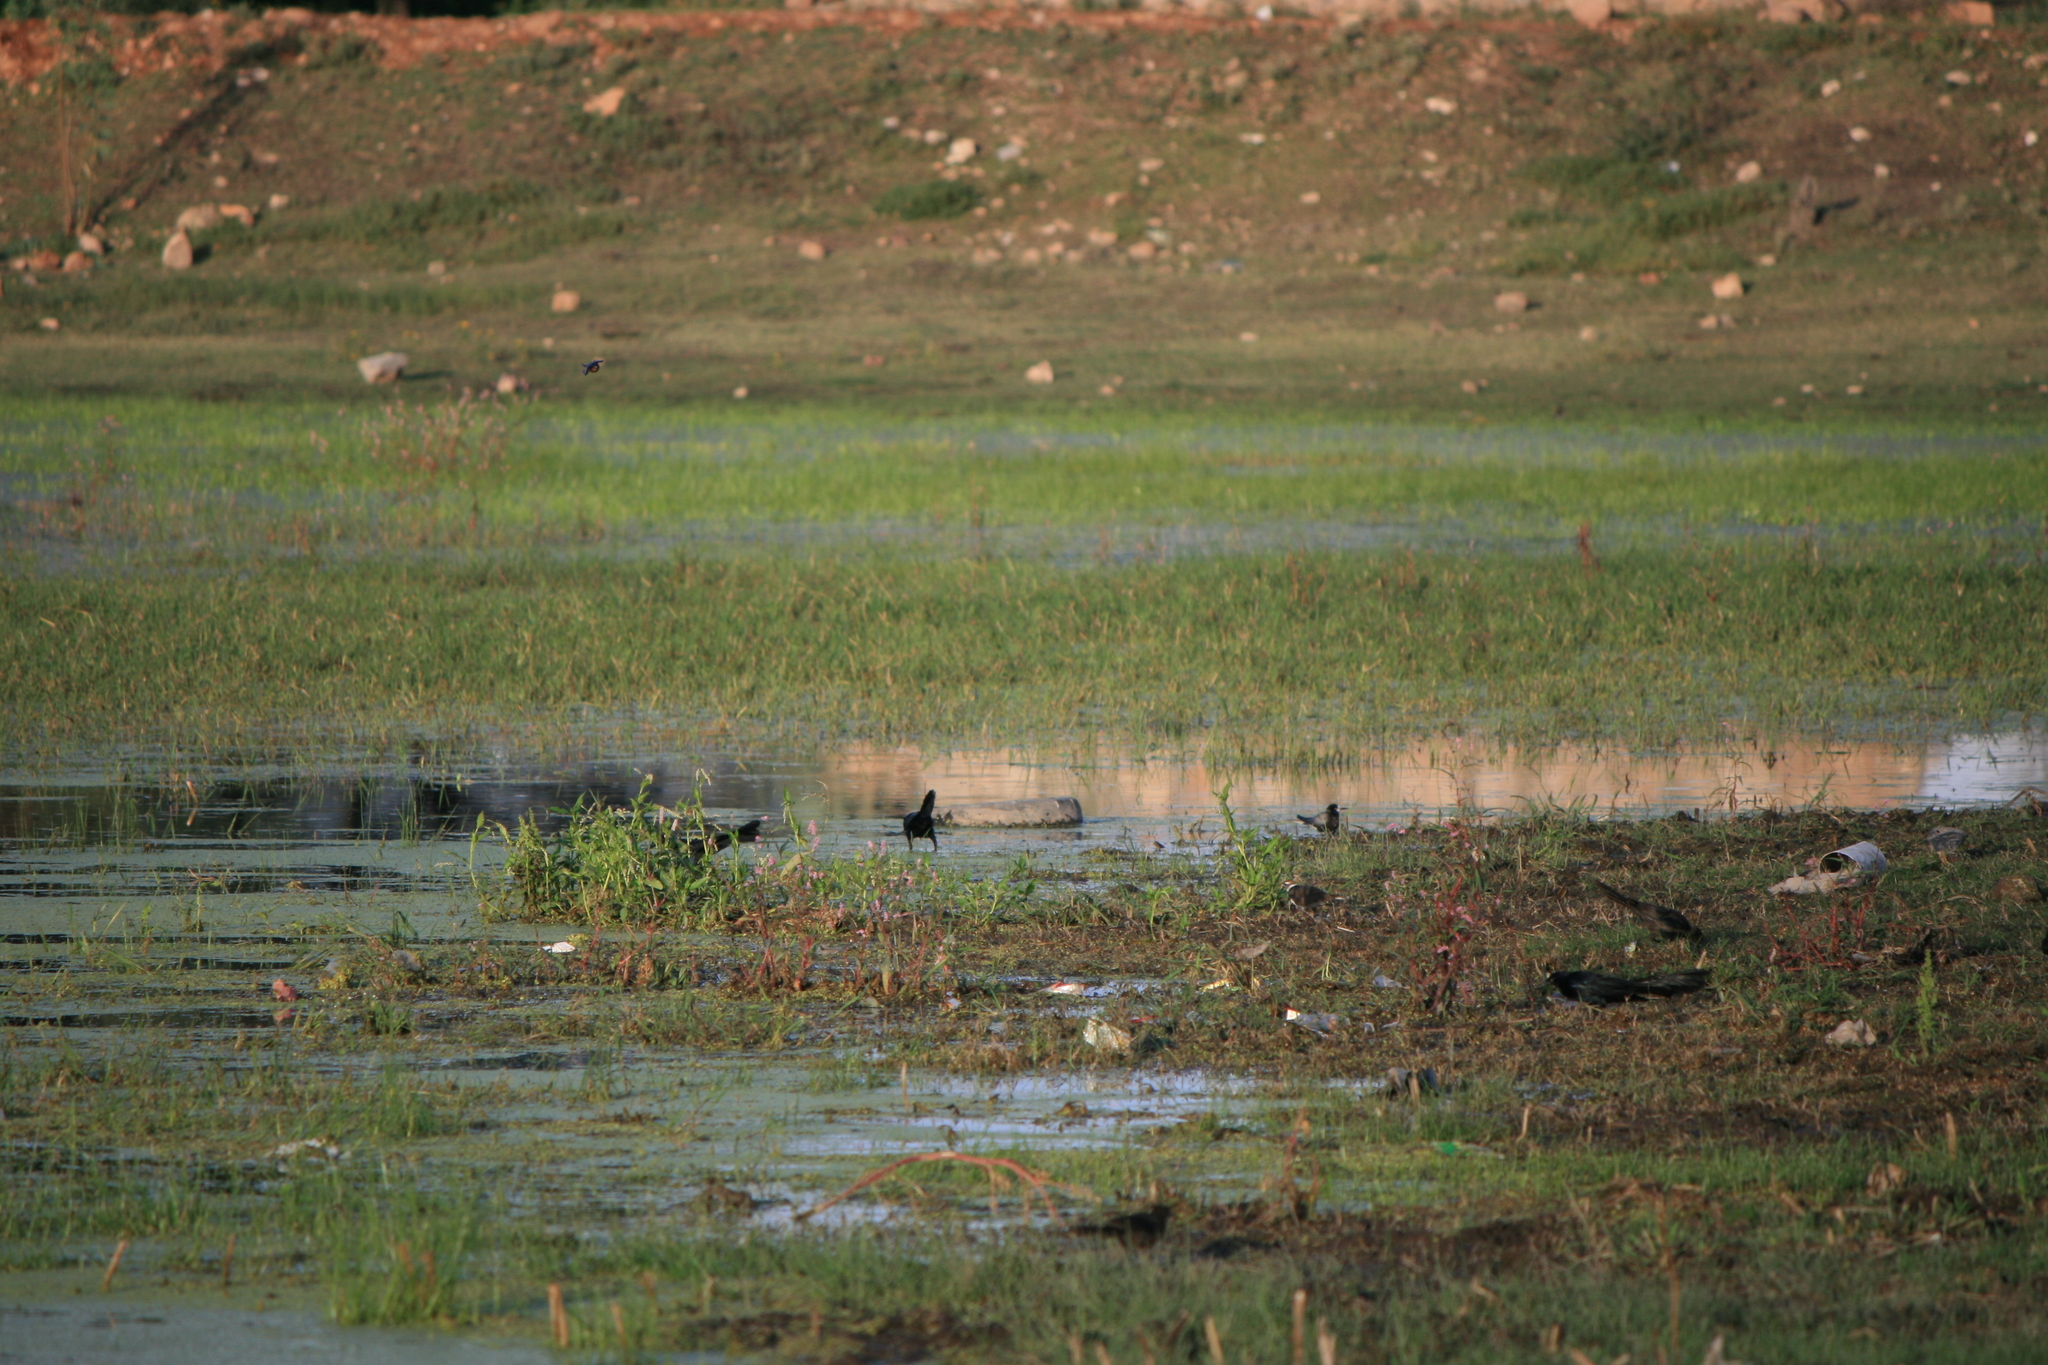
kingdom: Animalia
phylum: Chordata
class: Aves
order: Charadriiformes
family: Laridae
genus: Chlidonias
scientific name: Chlidonias niger
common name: Black tern
